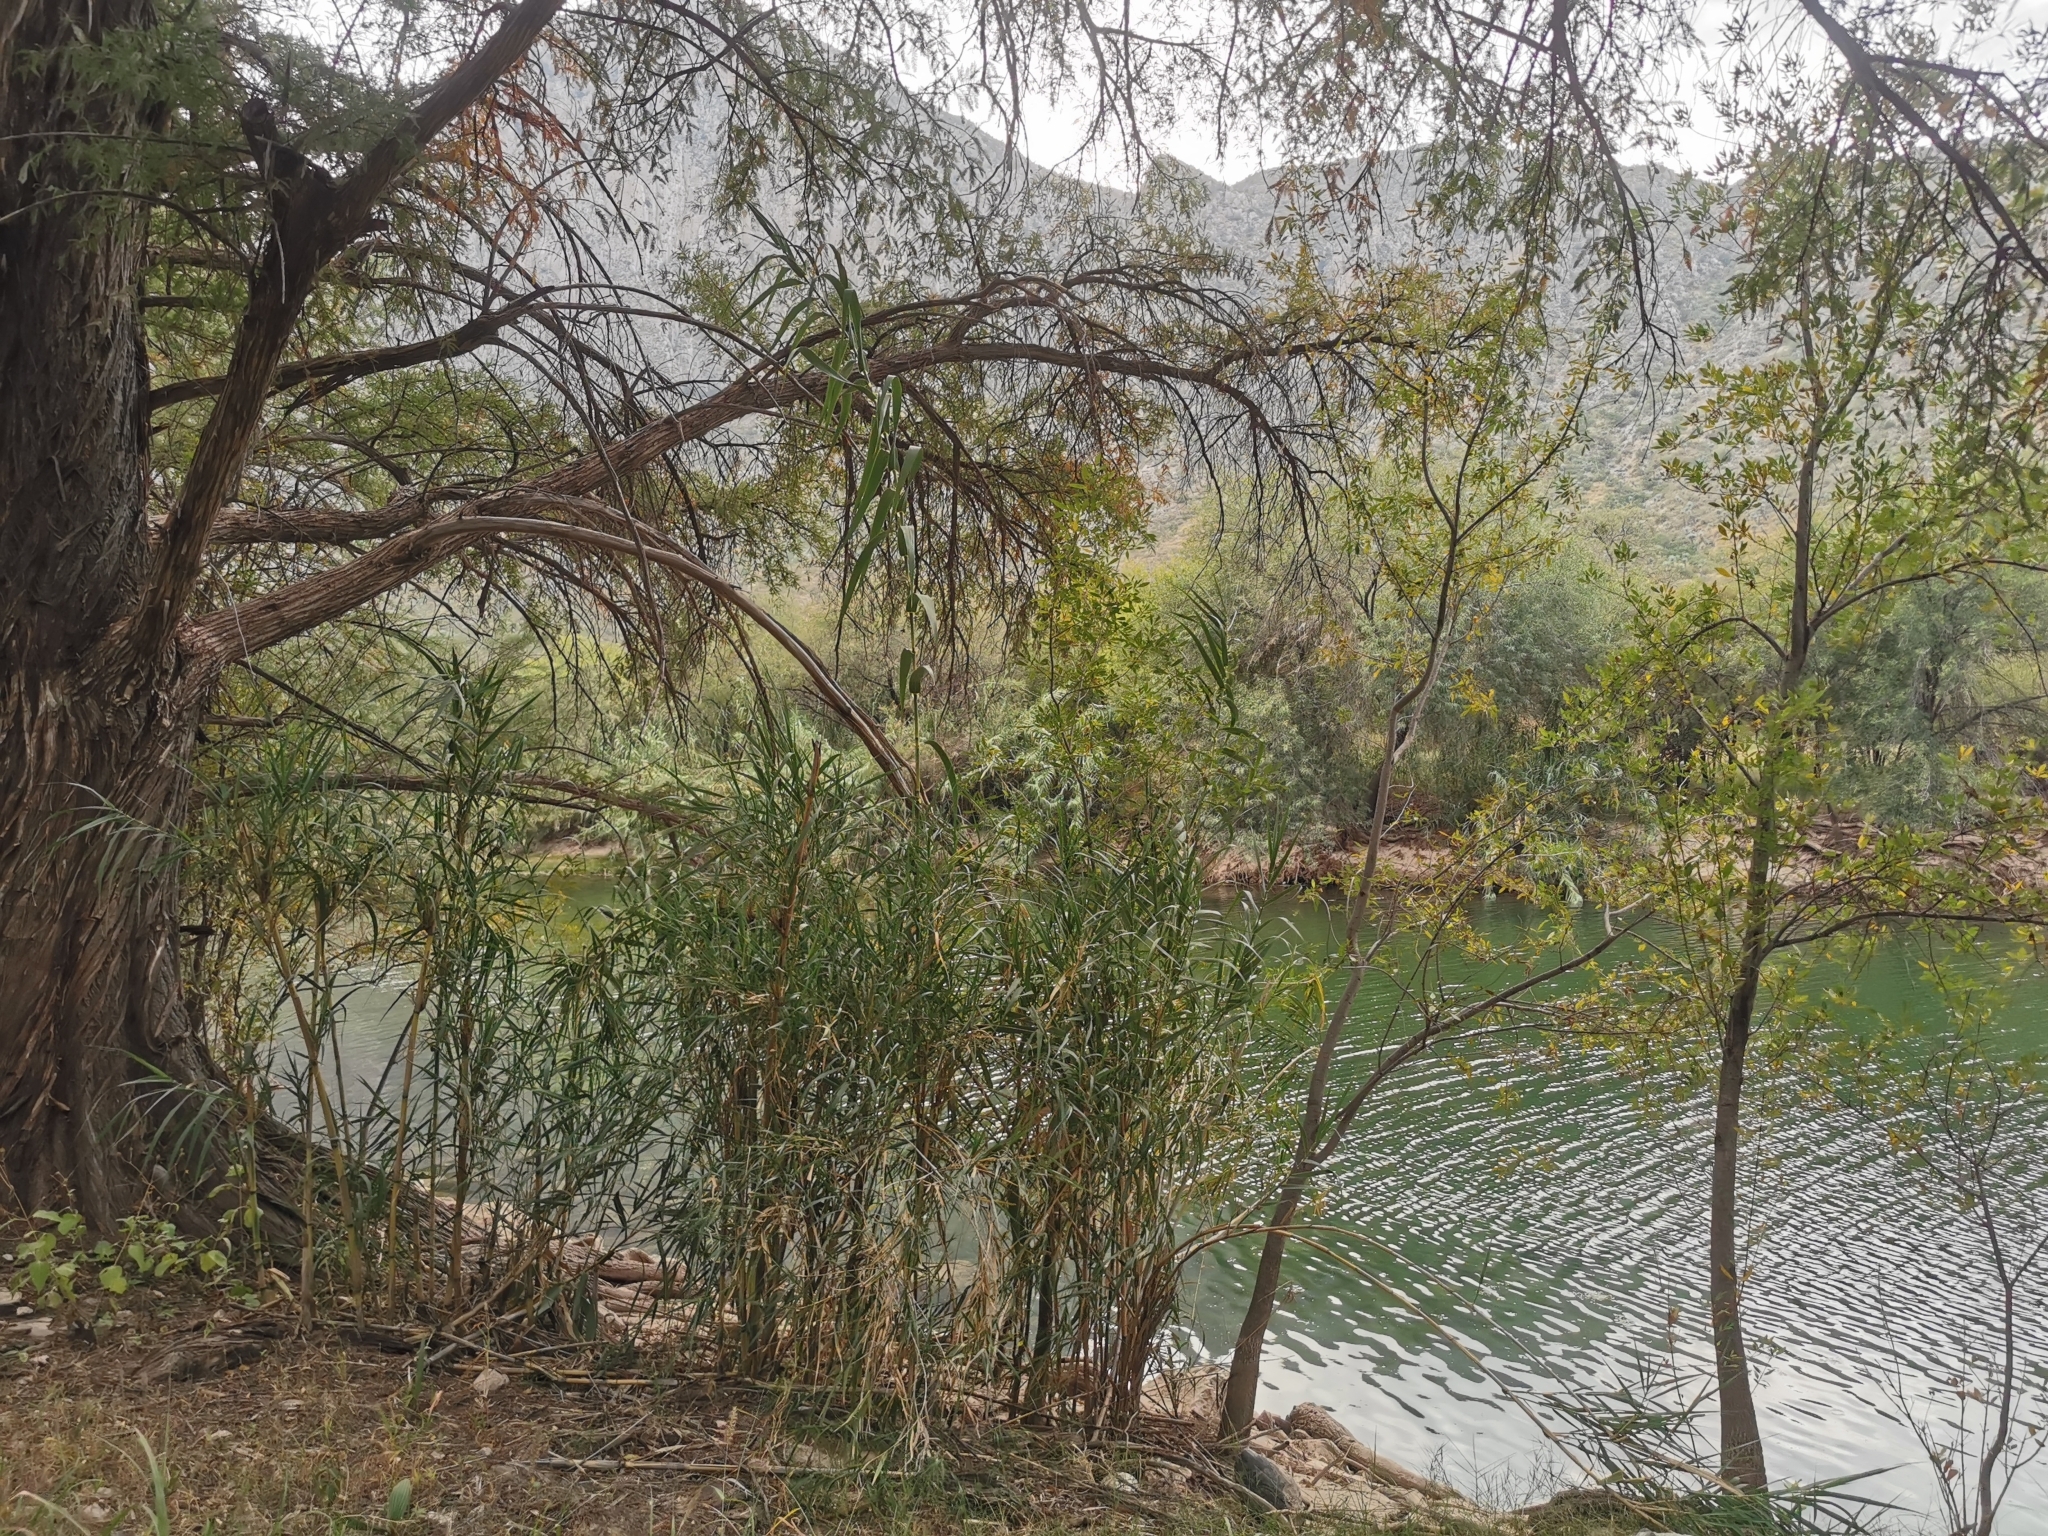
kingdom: Plantae
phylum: Tracheophyta
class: Liliopsida
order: Poales
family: Poaceae
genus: Arundo
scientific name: Arundo donax
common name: Giant reed
